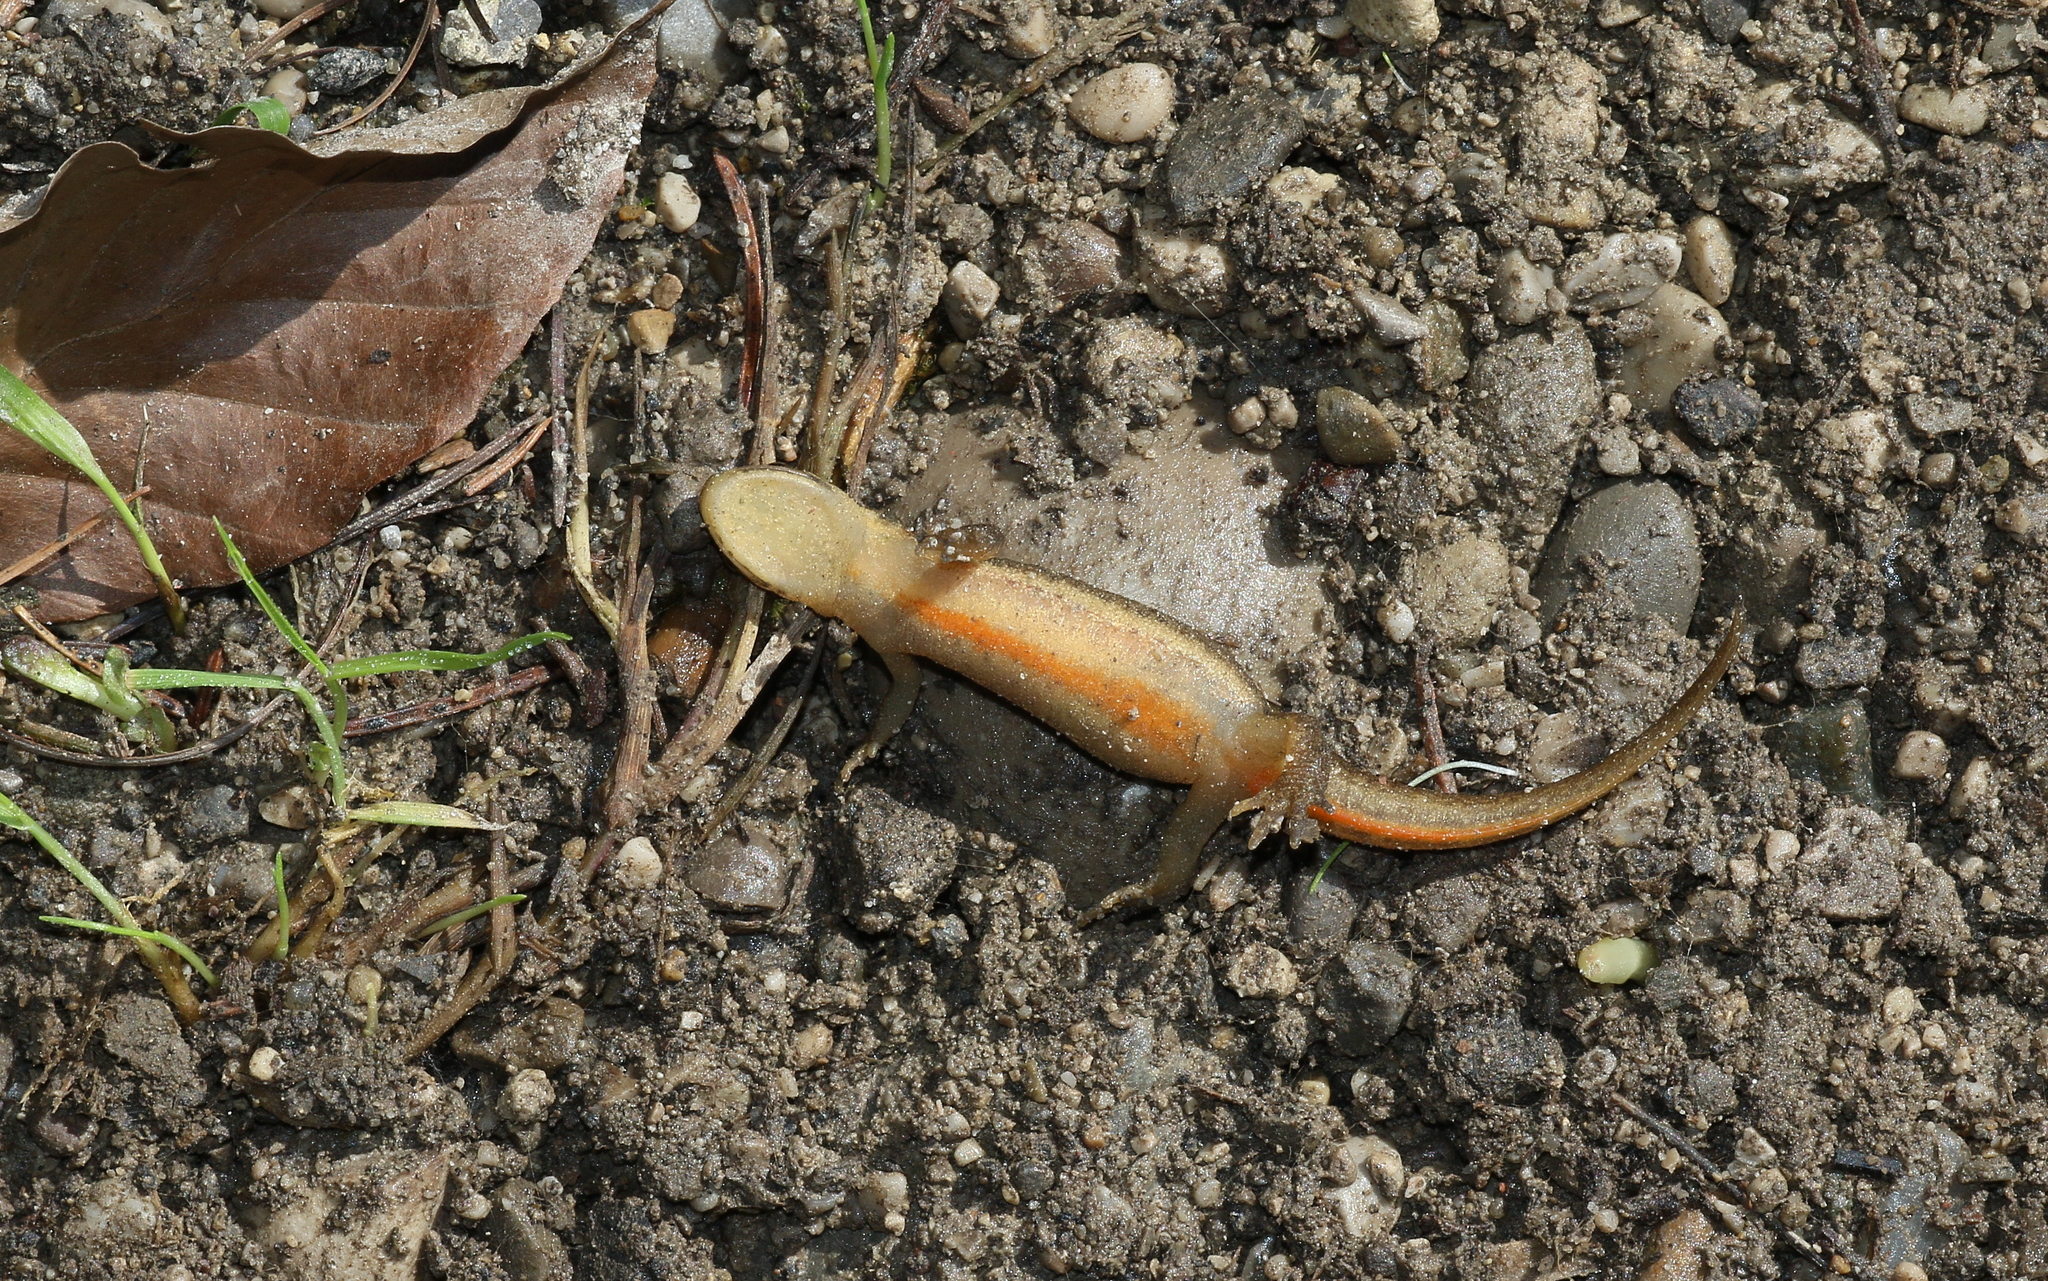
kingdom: Animalia
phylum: Chordata
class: Amphibia
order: Caudata
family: Salamandridae
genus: Lissotriton
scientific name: Lissotriton vulgaris
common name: Smooth newt
